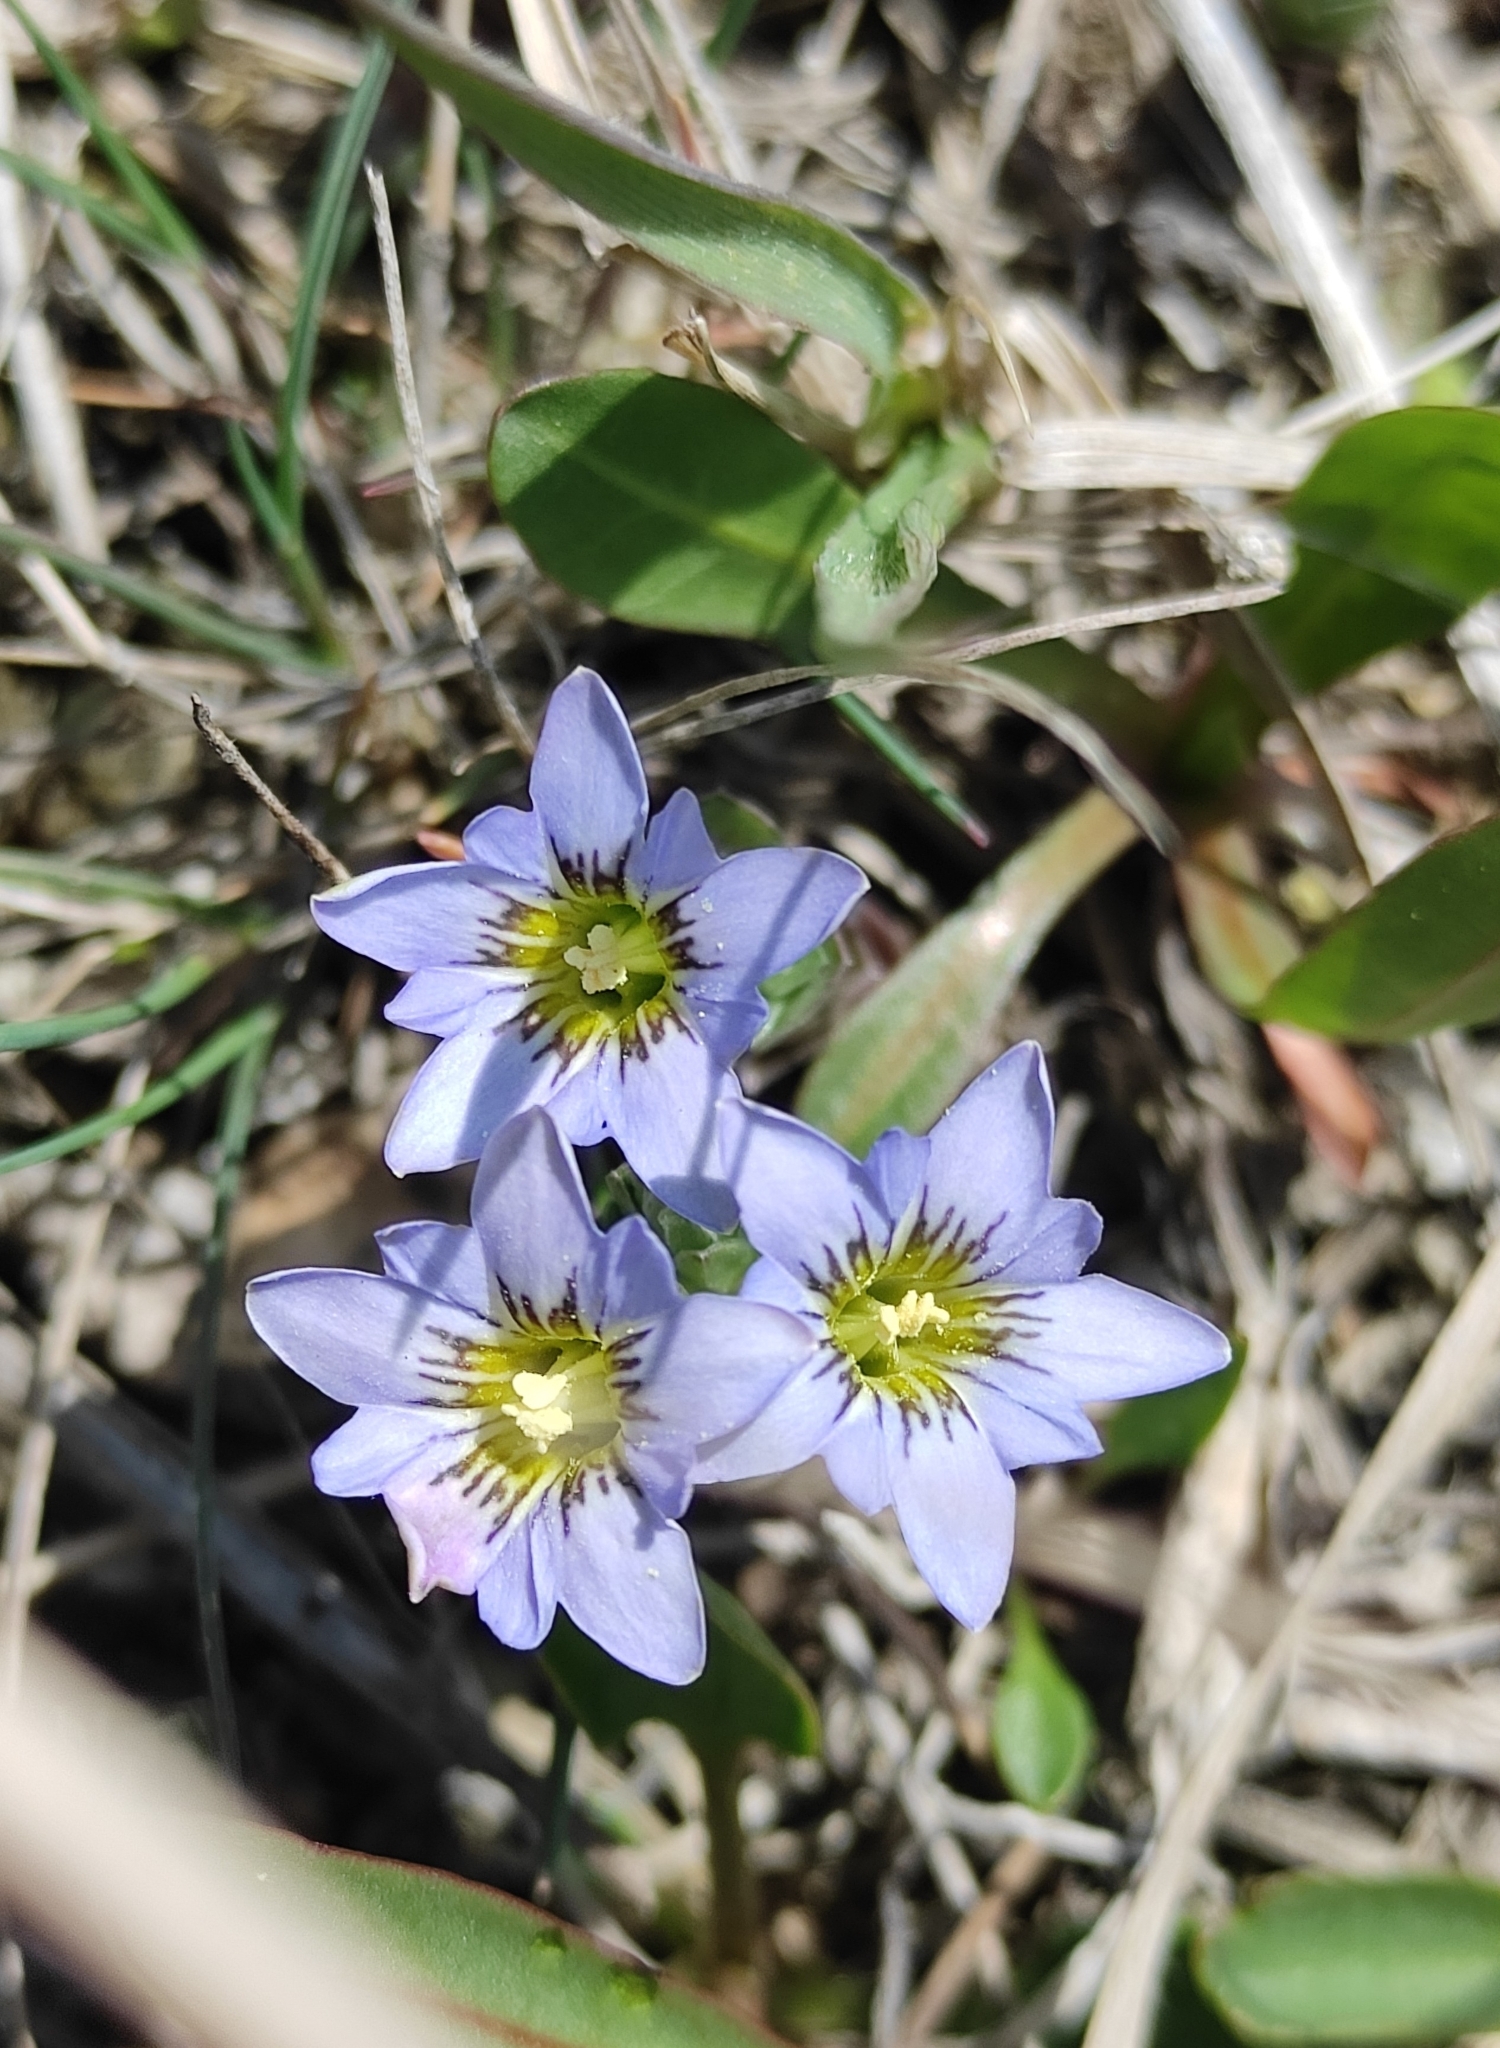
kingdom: Plantae
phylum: Tracheophyta
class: Magnoliopsida
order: Gentianales
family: Gentianaceae
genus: Gentiana
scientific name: Gentiana squarrosa
